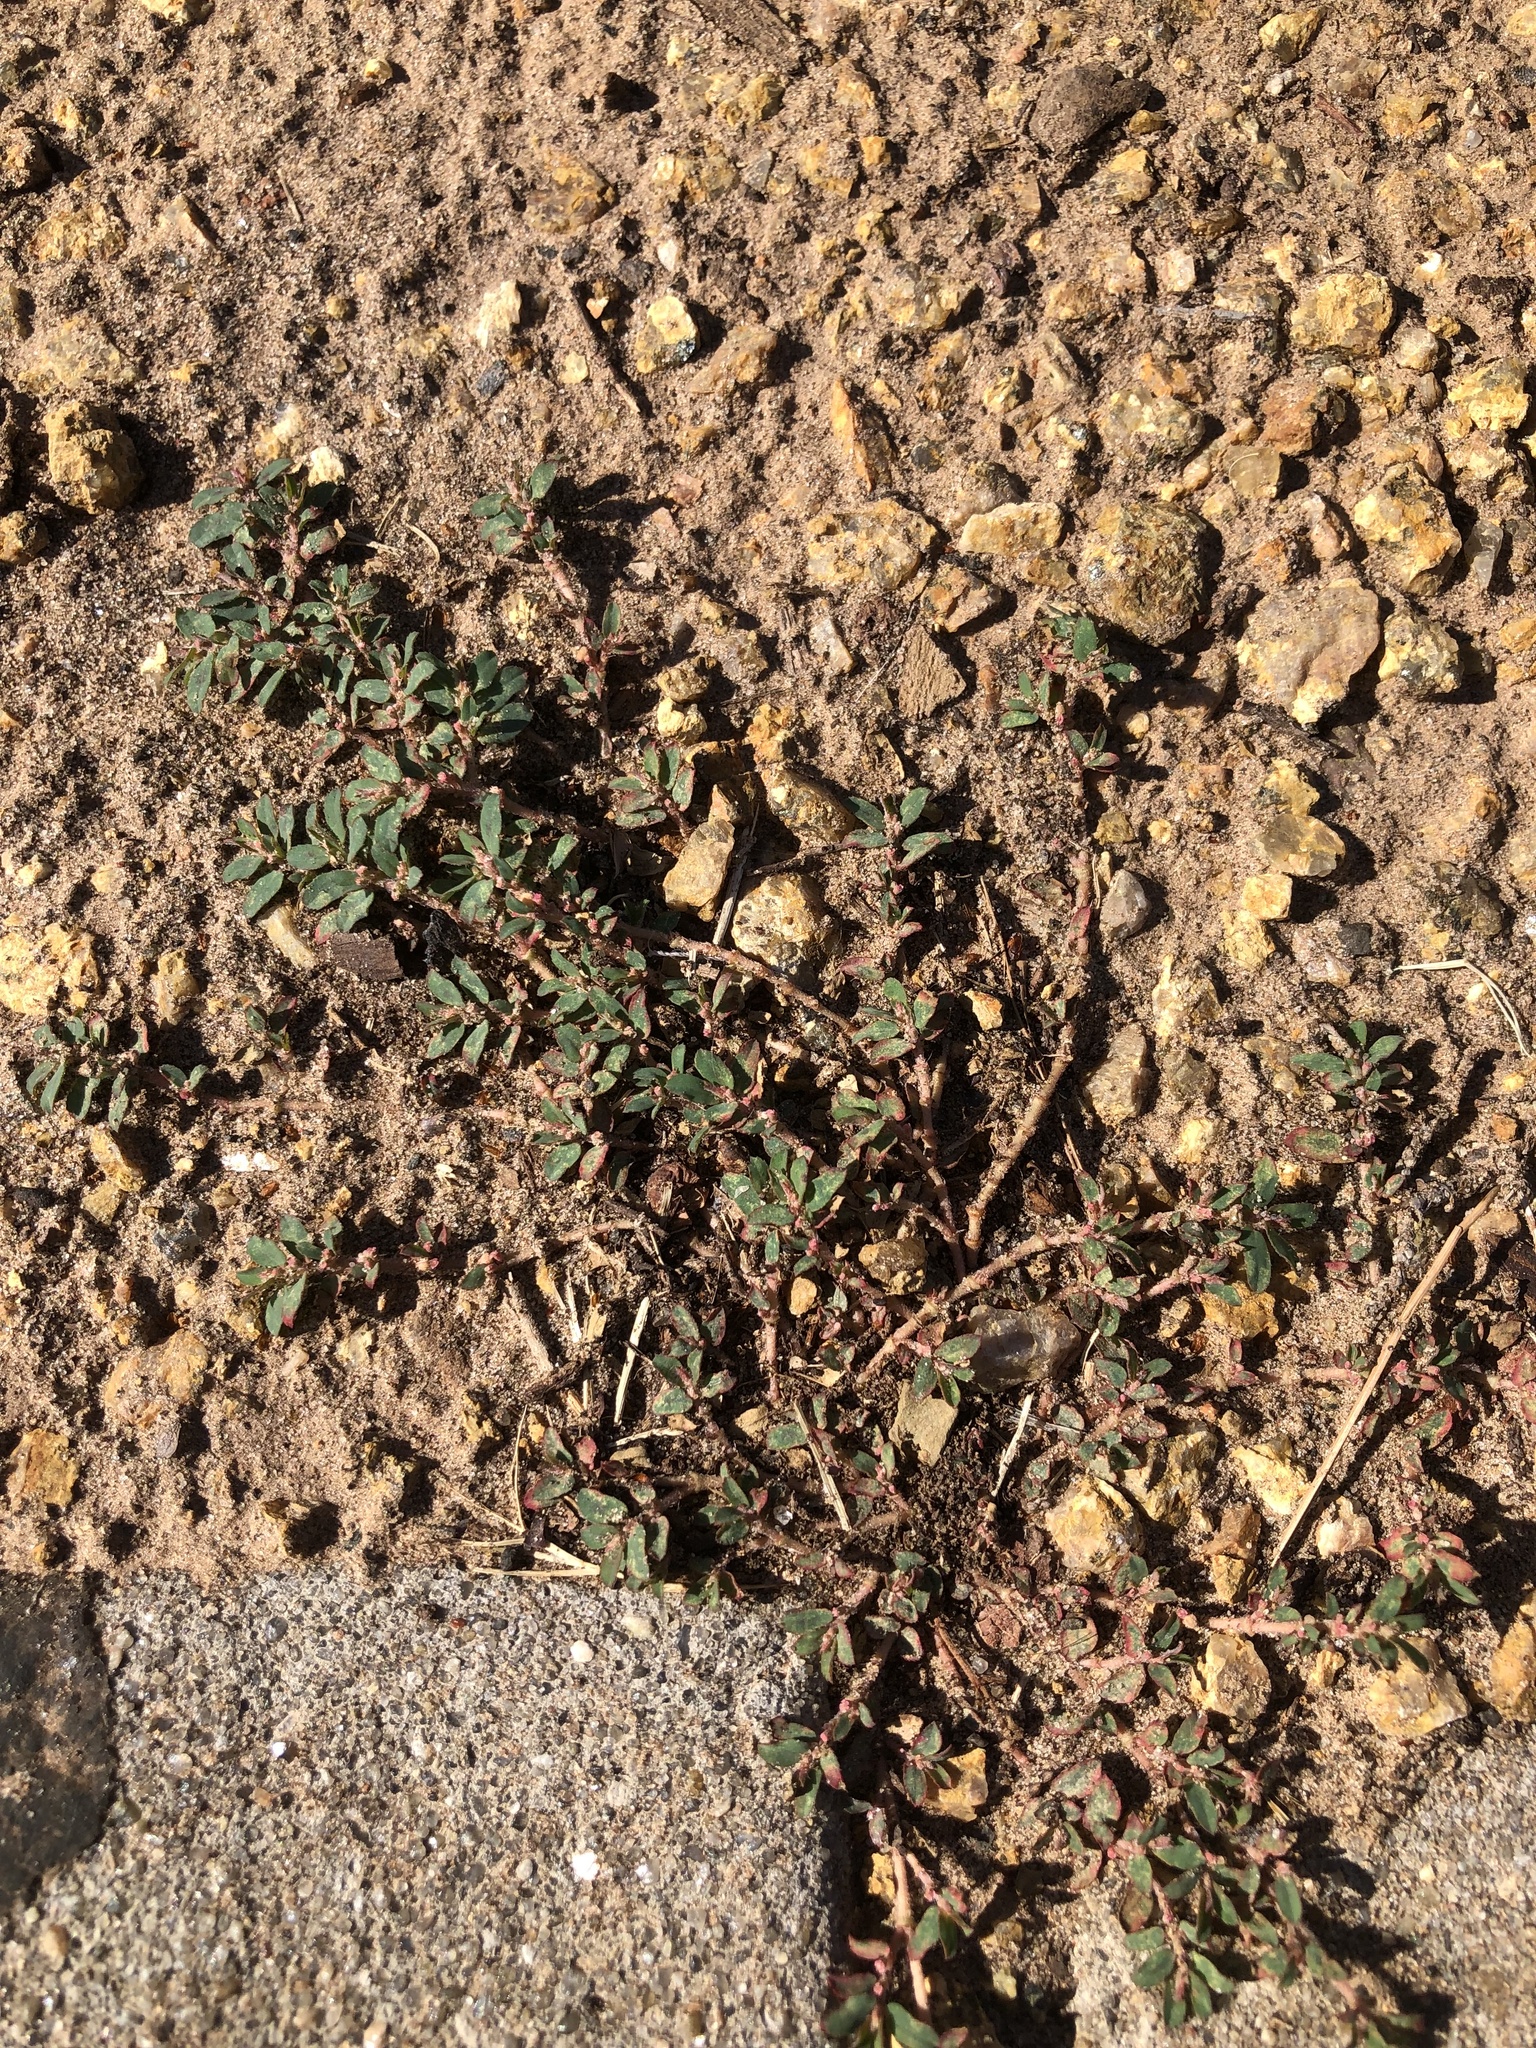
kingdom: Plantae
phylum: Tracheophyta
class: Magnoliopsida
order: Malpighiales
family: Euphorbiaceae
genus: Euphorbia
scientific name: Euphorbia maculata
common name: Spotted spurge
